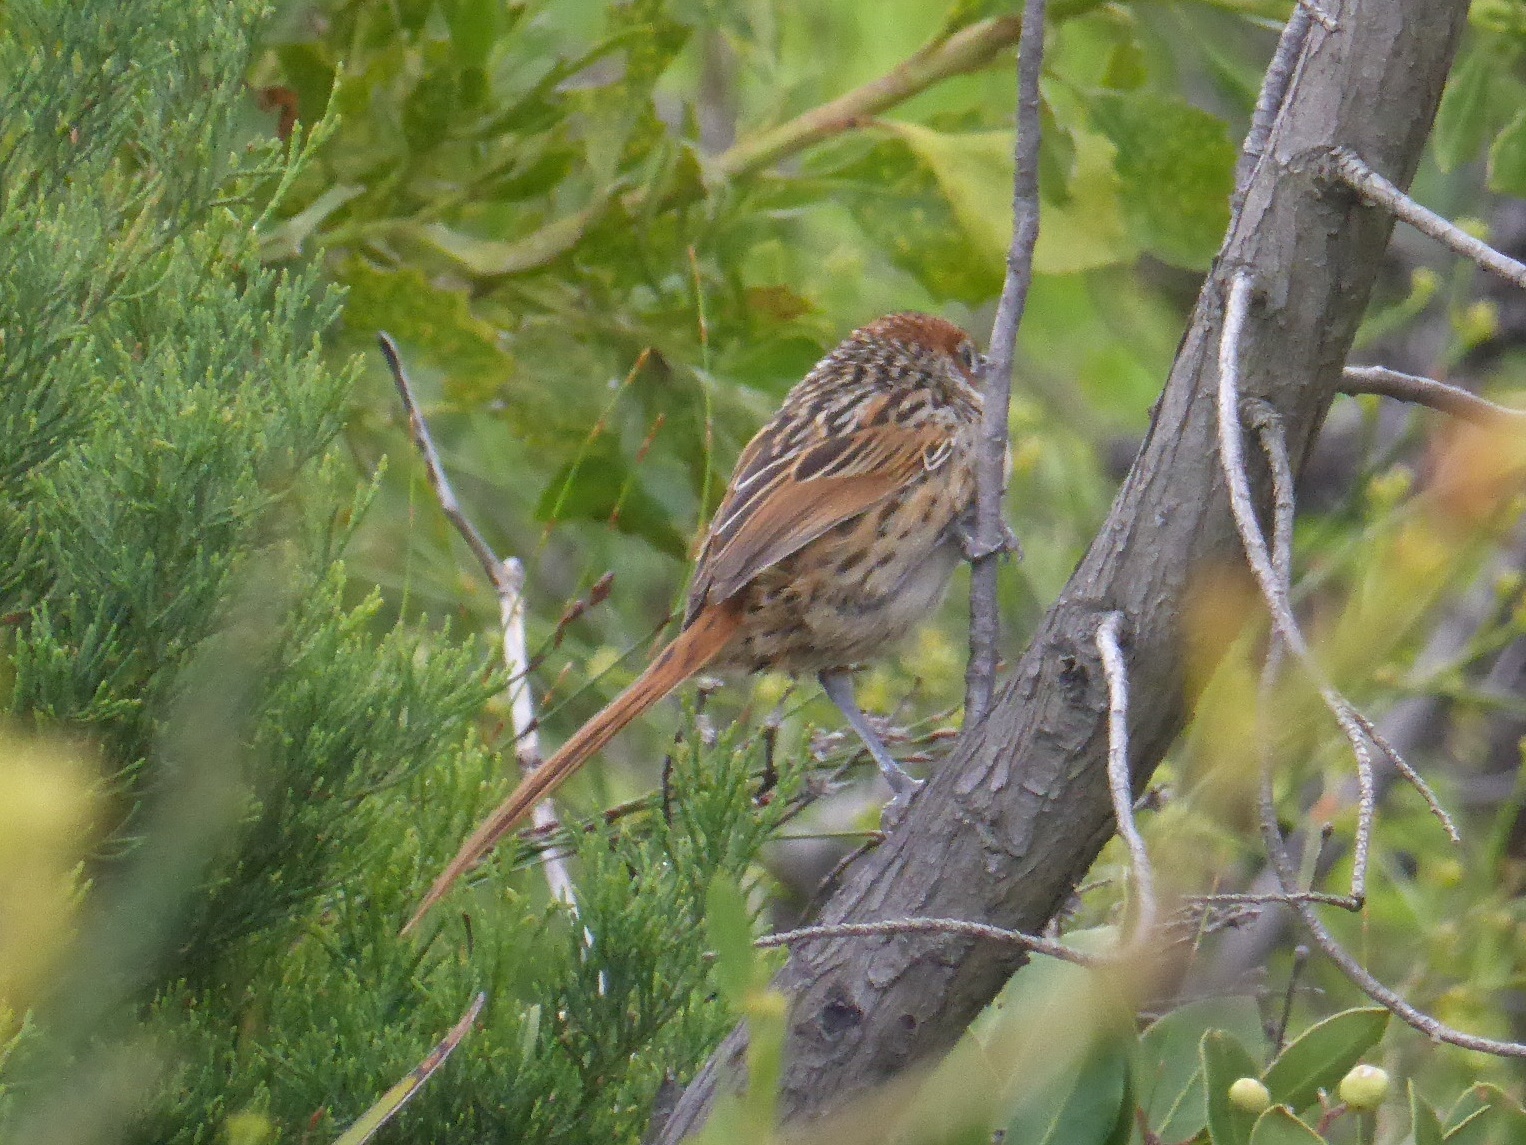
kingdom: Animalia
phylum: Chordata
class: Aves
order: Passeriformes
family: Macrosphenidae
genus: Sphenoeacus
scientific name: Sphenoeacus afer
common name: Cape grassbird
